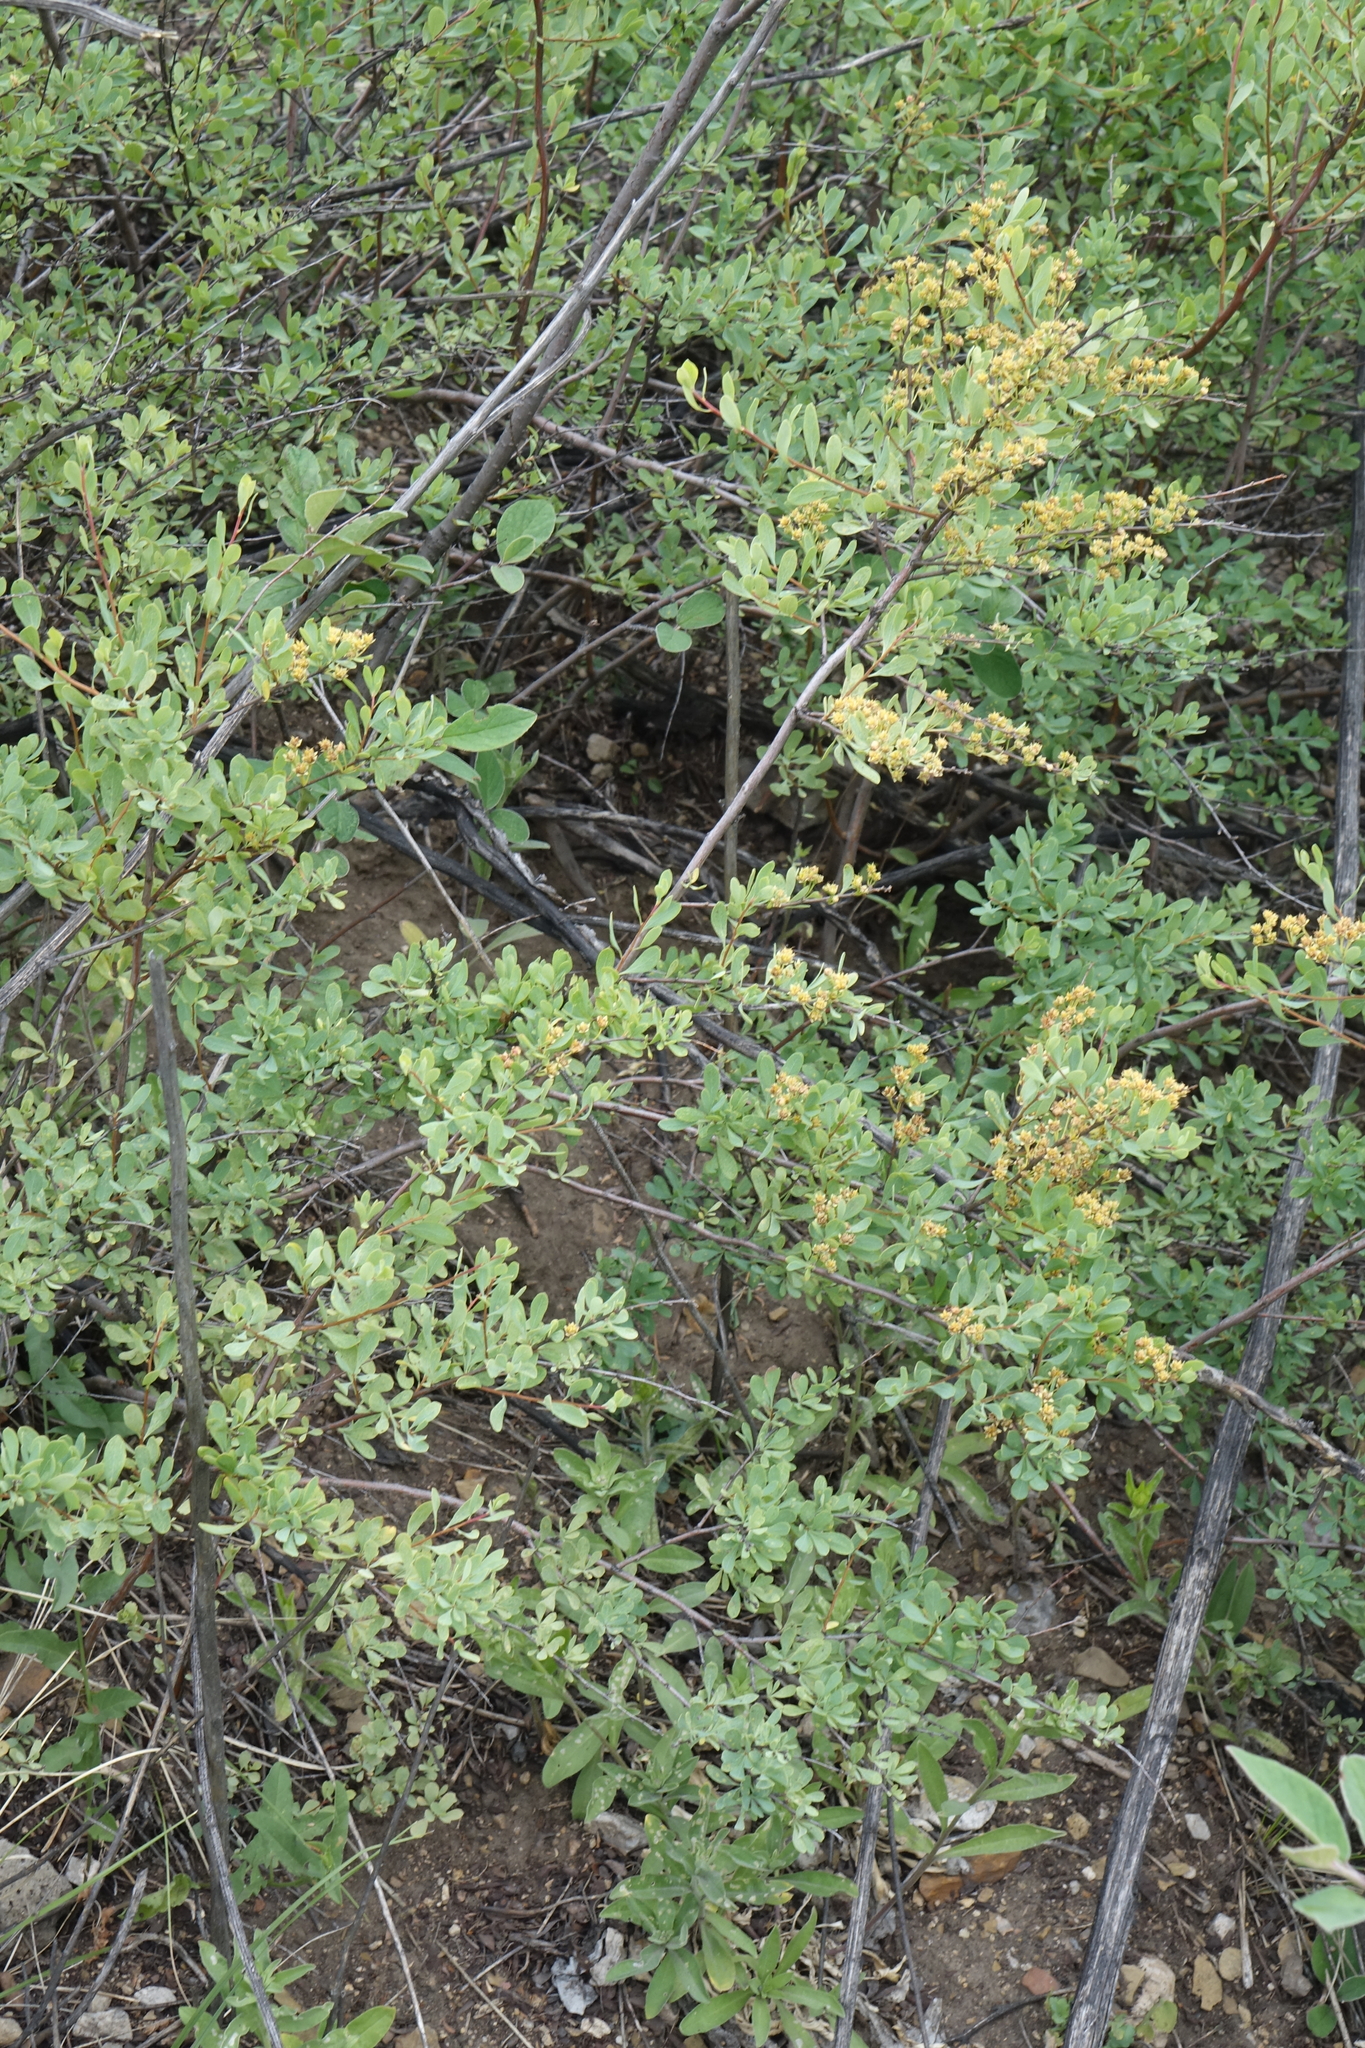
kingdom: Plantae
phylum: Tracheophyta
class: Magnoliopsida
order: Rosales
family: Rosaceae
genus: Spiraea
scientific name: Spiraea hypericifolia
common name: Iberian spirea
